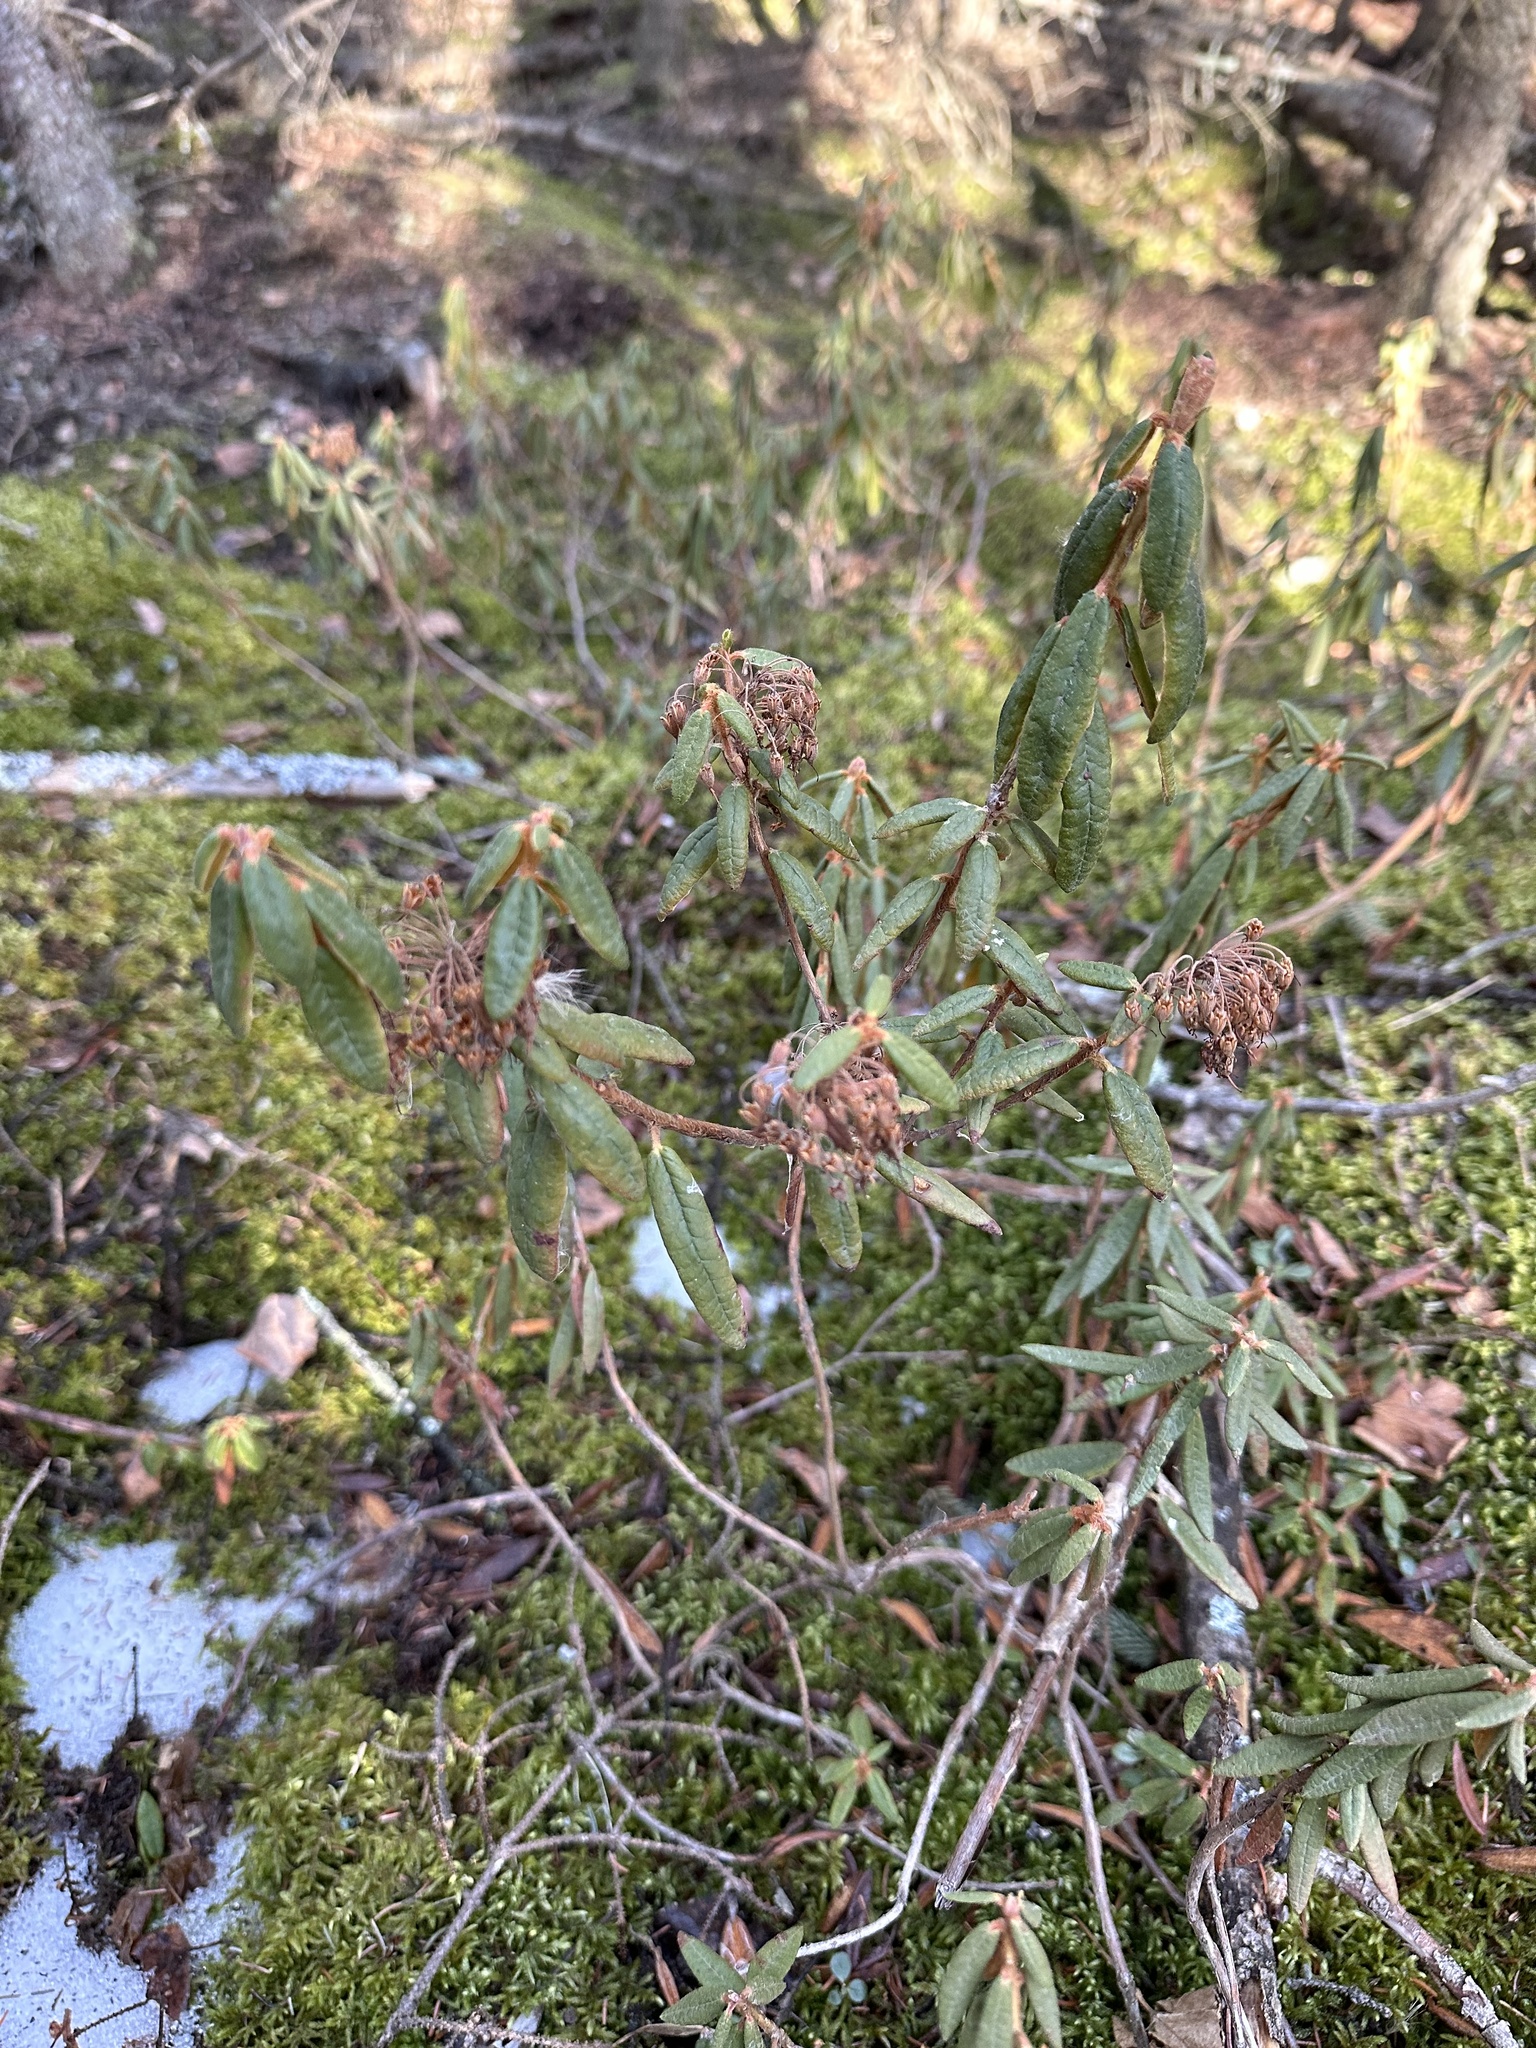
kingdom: Plantae
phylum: Tracheophyta
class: Magnoliopsida
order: Ericales
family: Ericaceae
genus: Rhododendron
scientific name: Rhododendron groenlandicum
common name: Bog labrador tea
